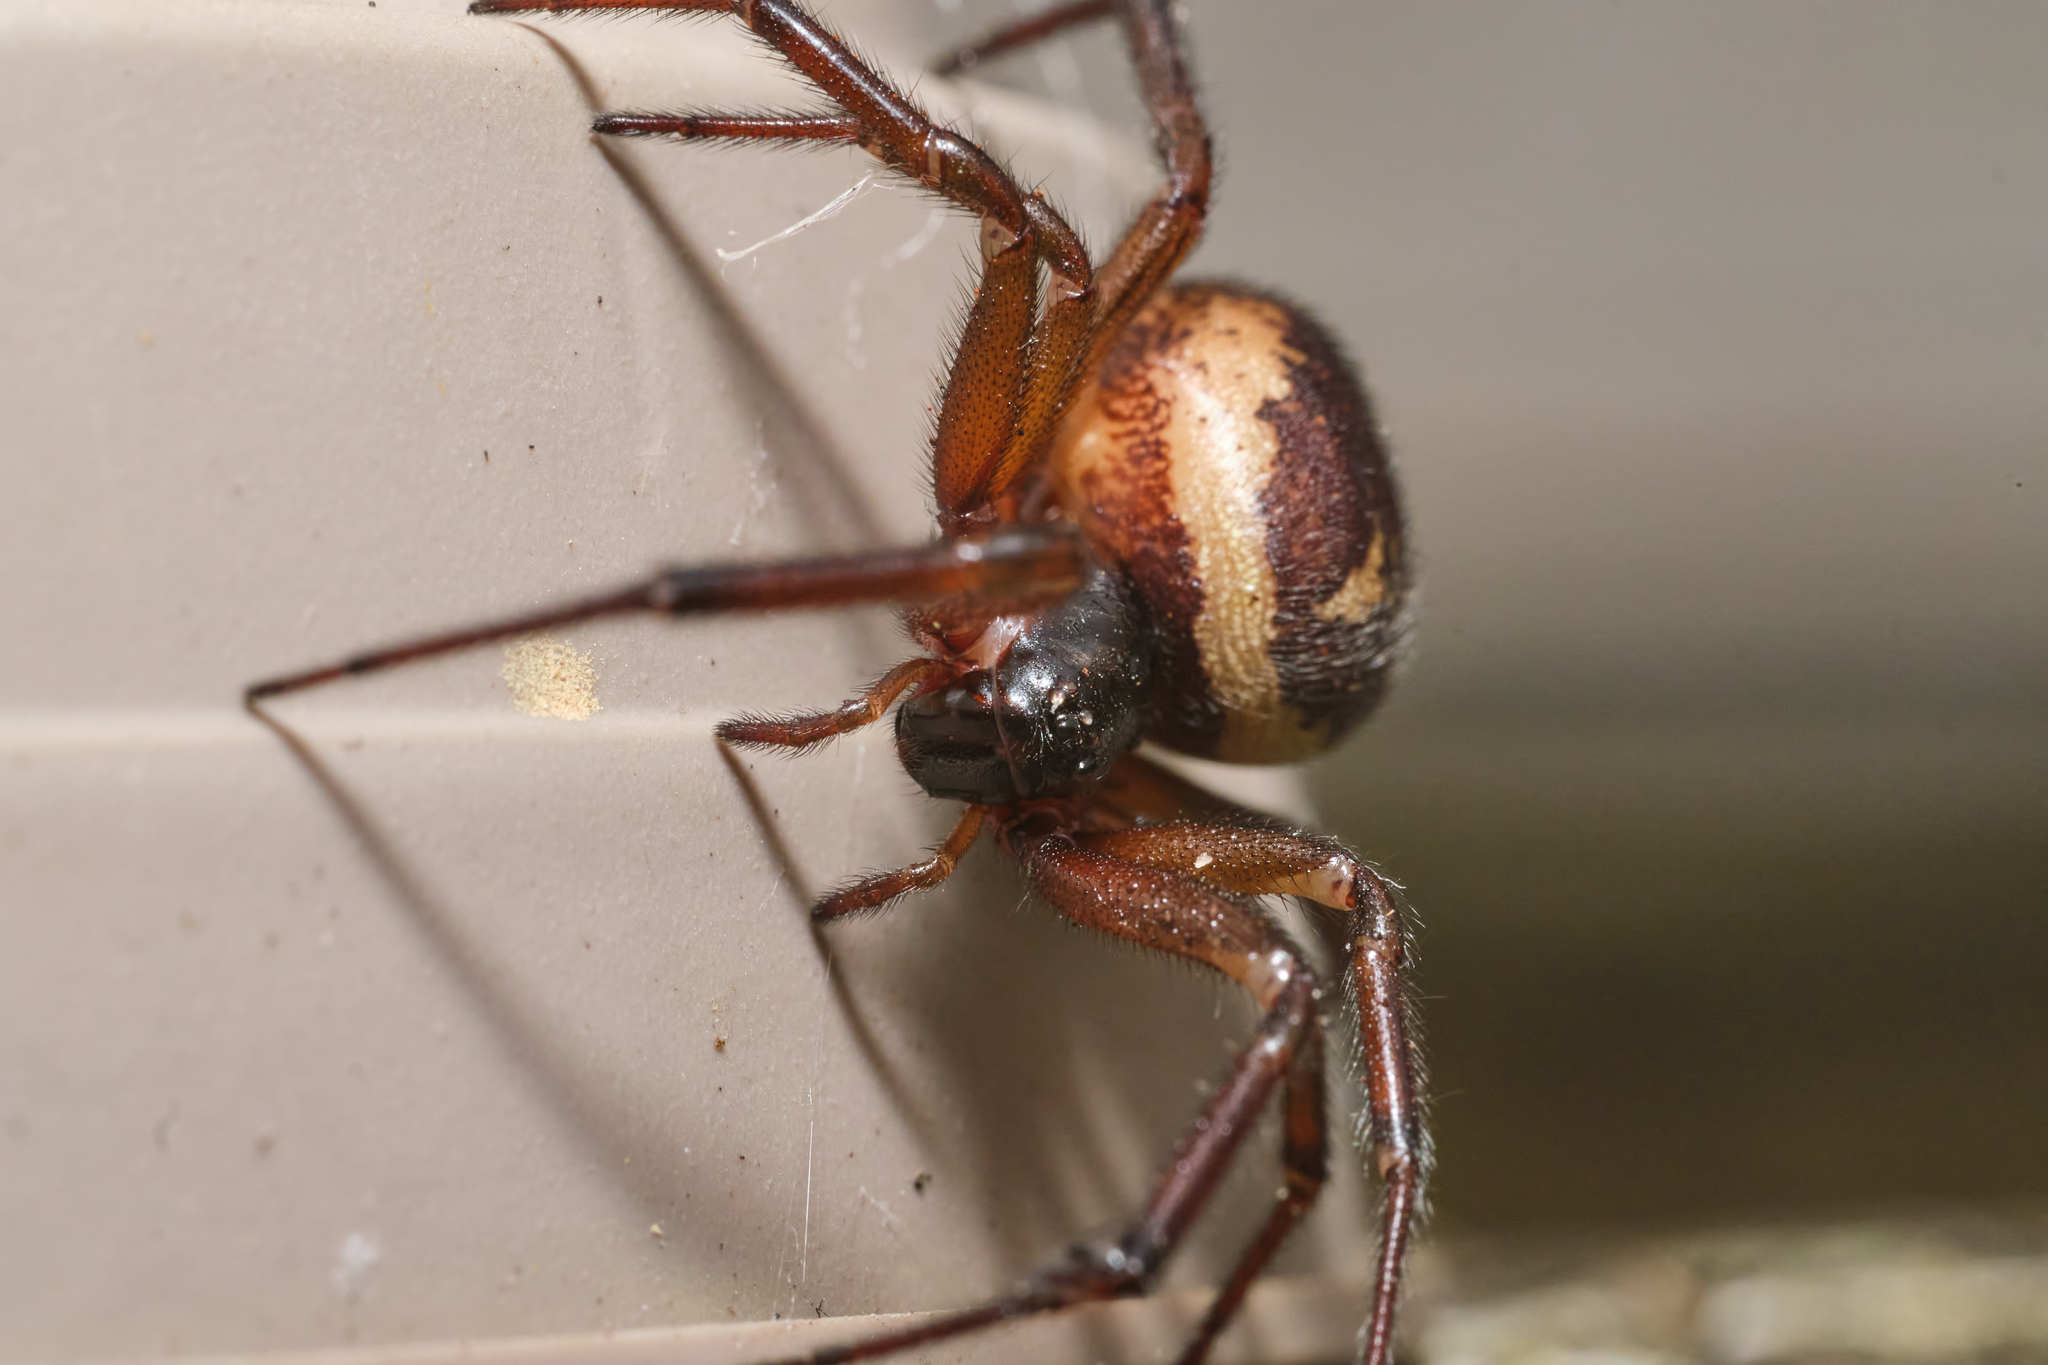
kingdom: Animalia
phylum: Arthropoda
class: Arachnida
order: Araneae
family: Theridiidae
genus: Steatoda
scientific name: Steatoda nobilis
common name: Cobweb weaver
